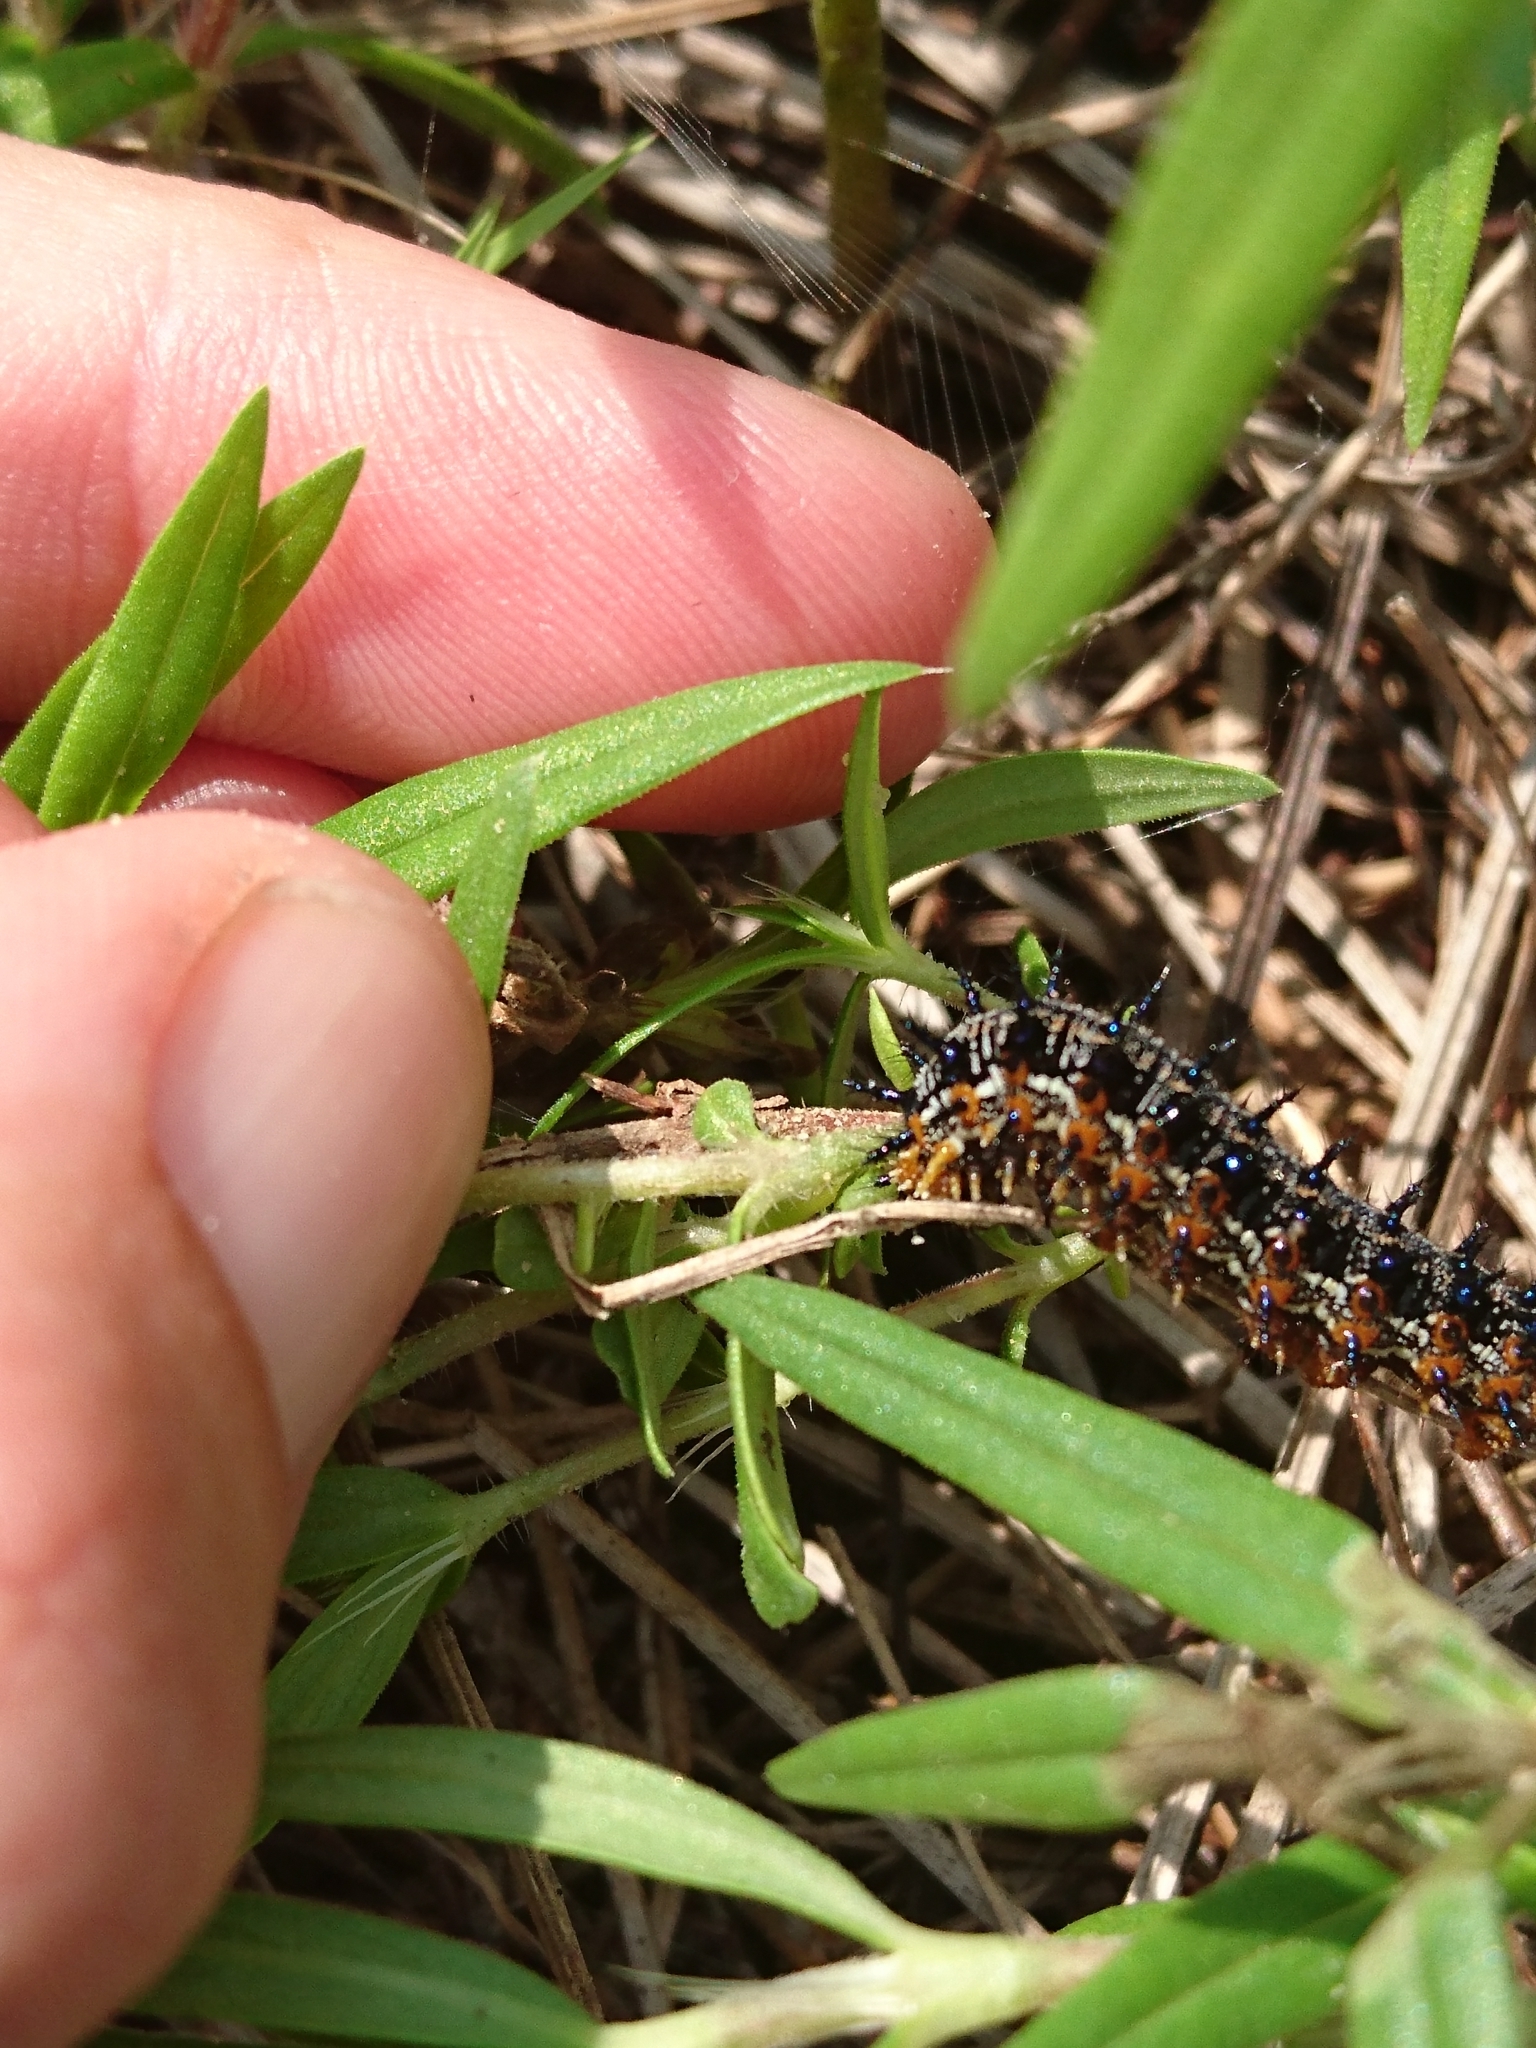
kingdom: Animalia
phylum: Arthropoda
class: Insecta
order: Lepidoptera
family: Nymphalidae
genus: Junonia
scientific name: Junonia coenia
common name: Common buckeye
